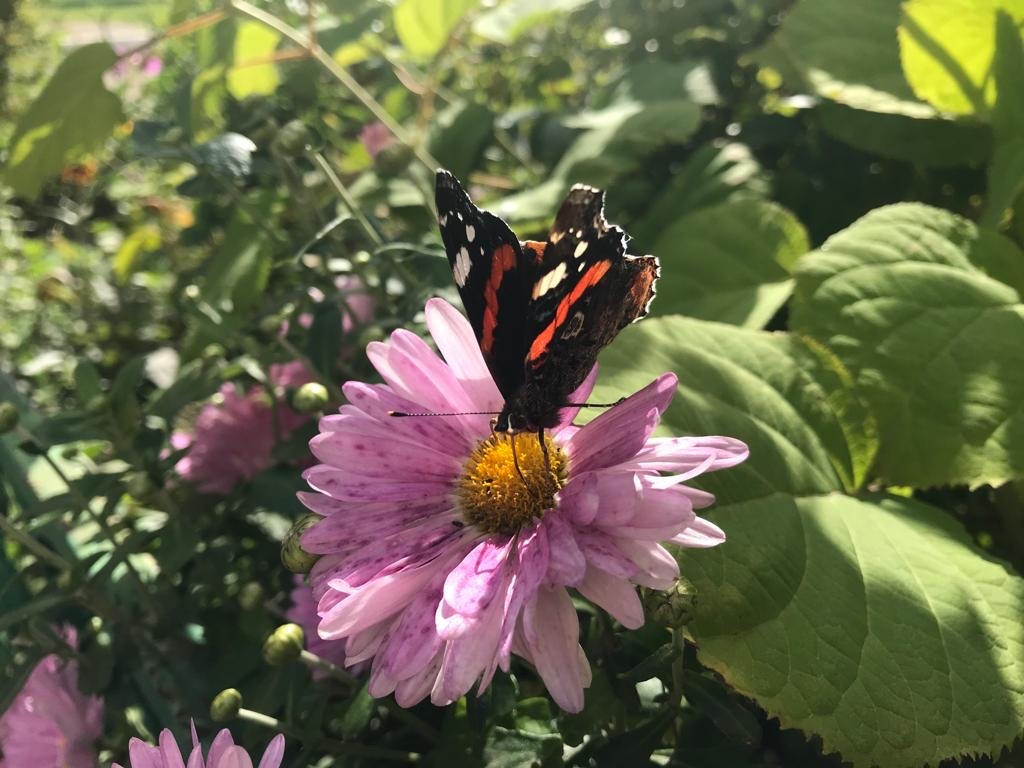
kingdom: Animalia
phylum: Arthropoda
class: Insecta
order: Lepidoptera
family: Nymphalidae
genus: Vanessa
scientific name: Vanessa atalanta
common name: Red admiral
